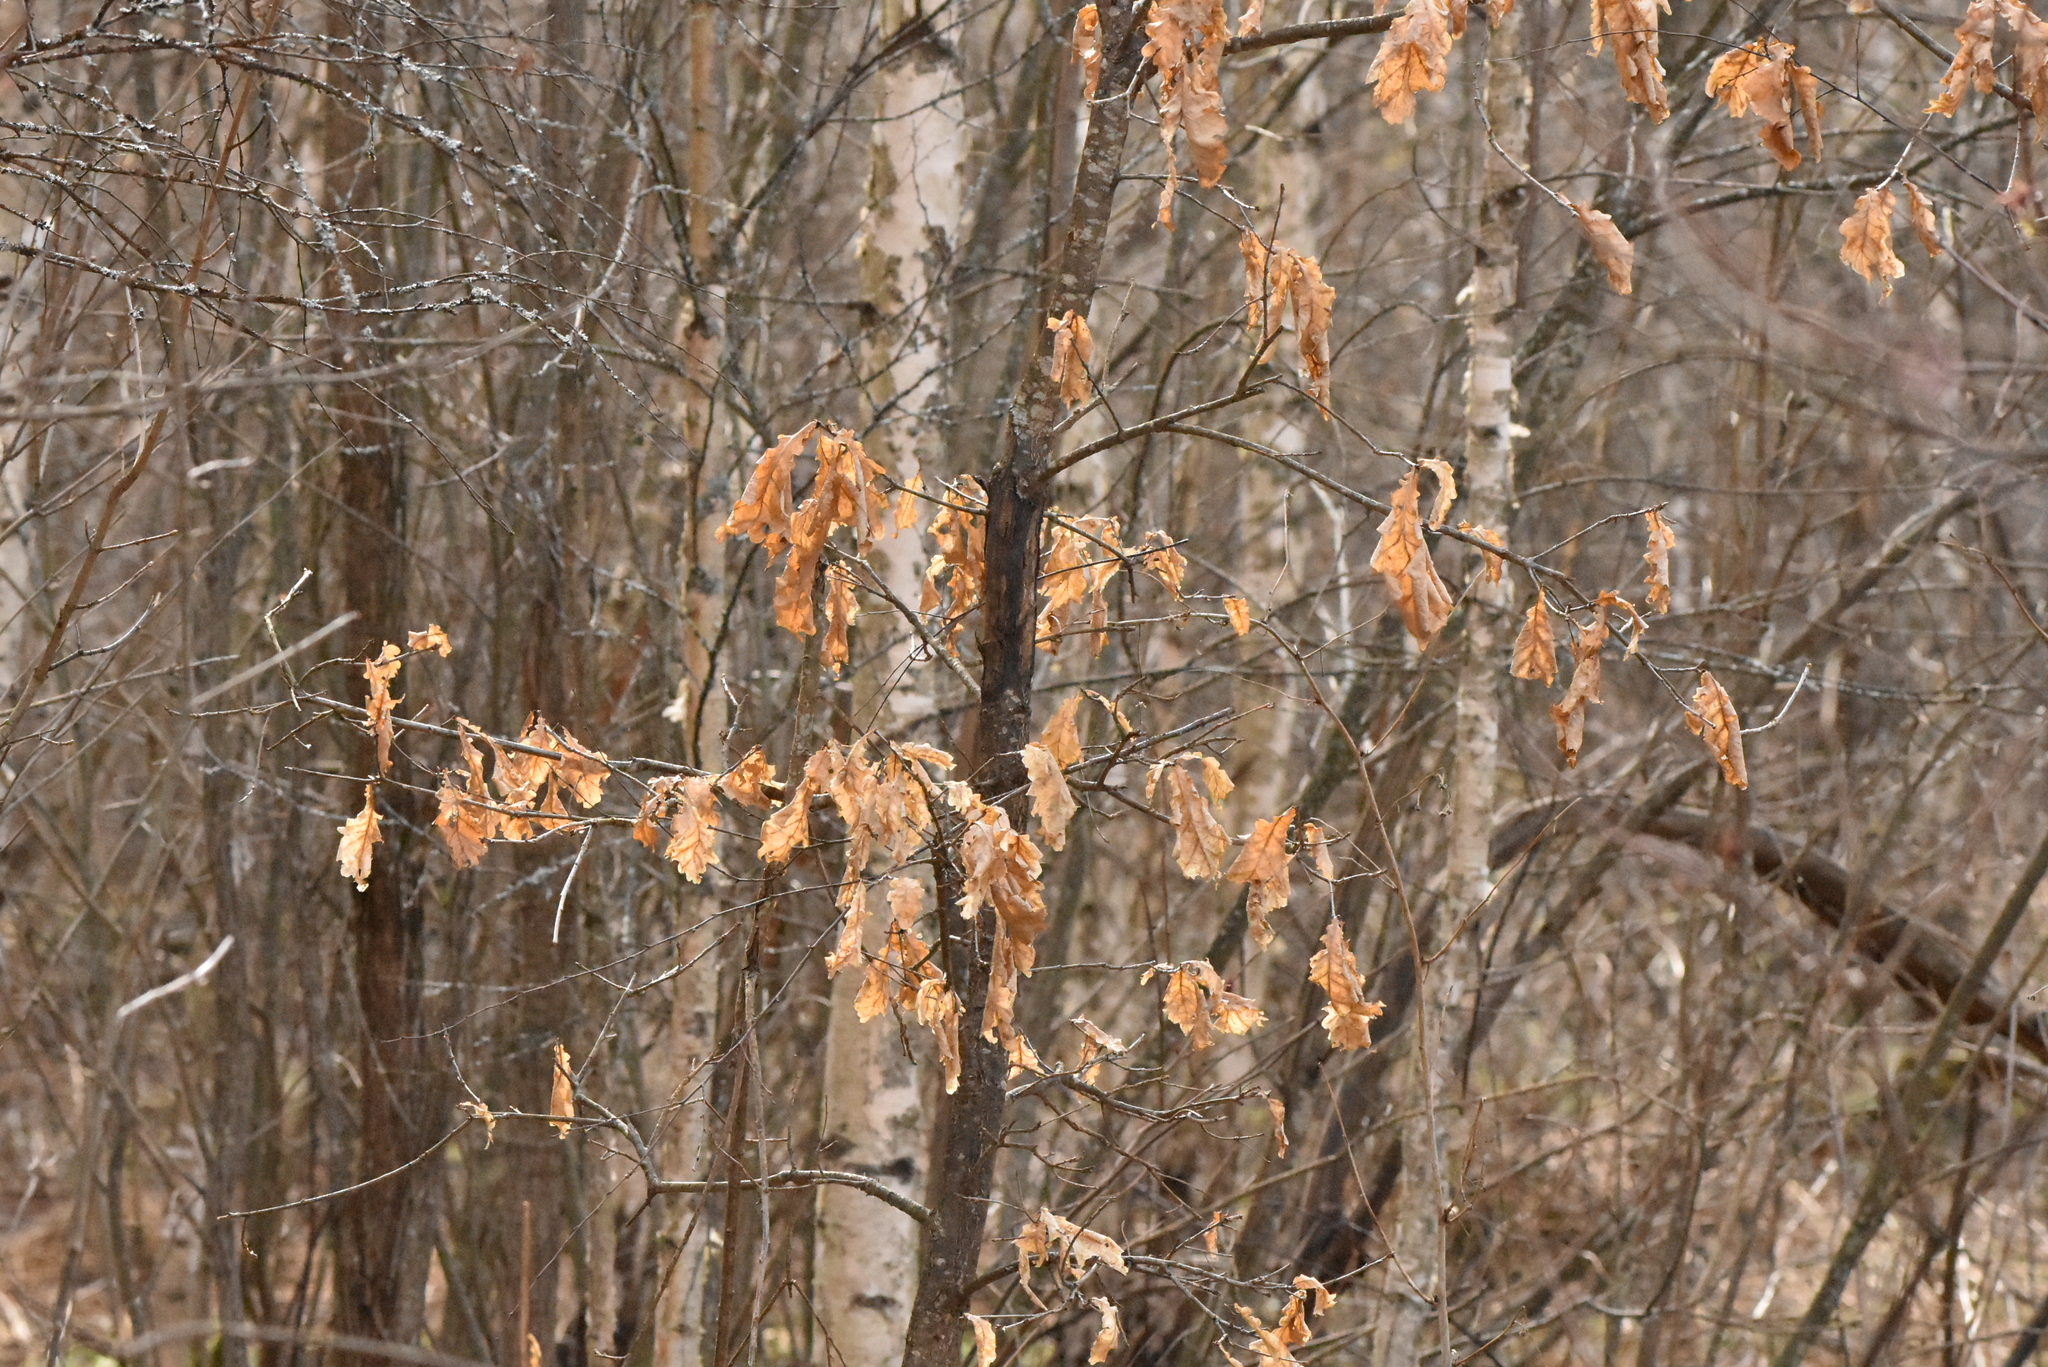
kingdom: Plantae
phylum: Tracheophyta
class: Magnoliopsida
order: Fagales
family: Fagaceae
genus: Quercus
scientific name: Quercus robur
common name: Pedunculate oak
